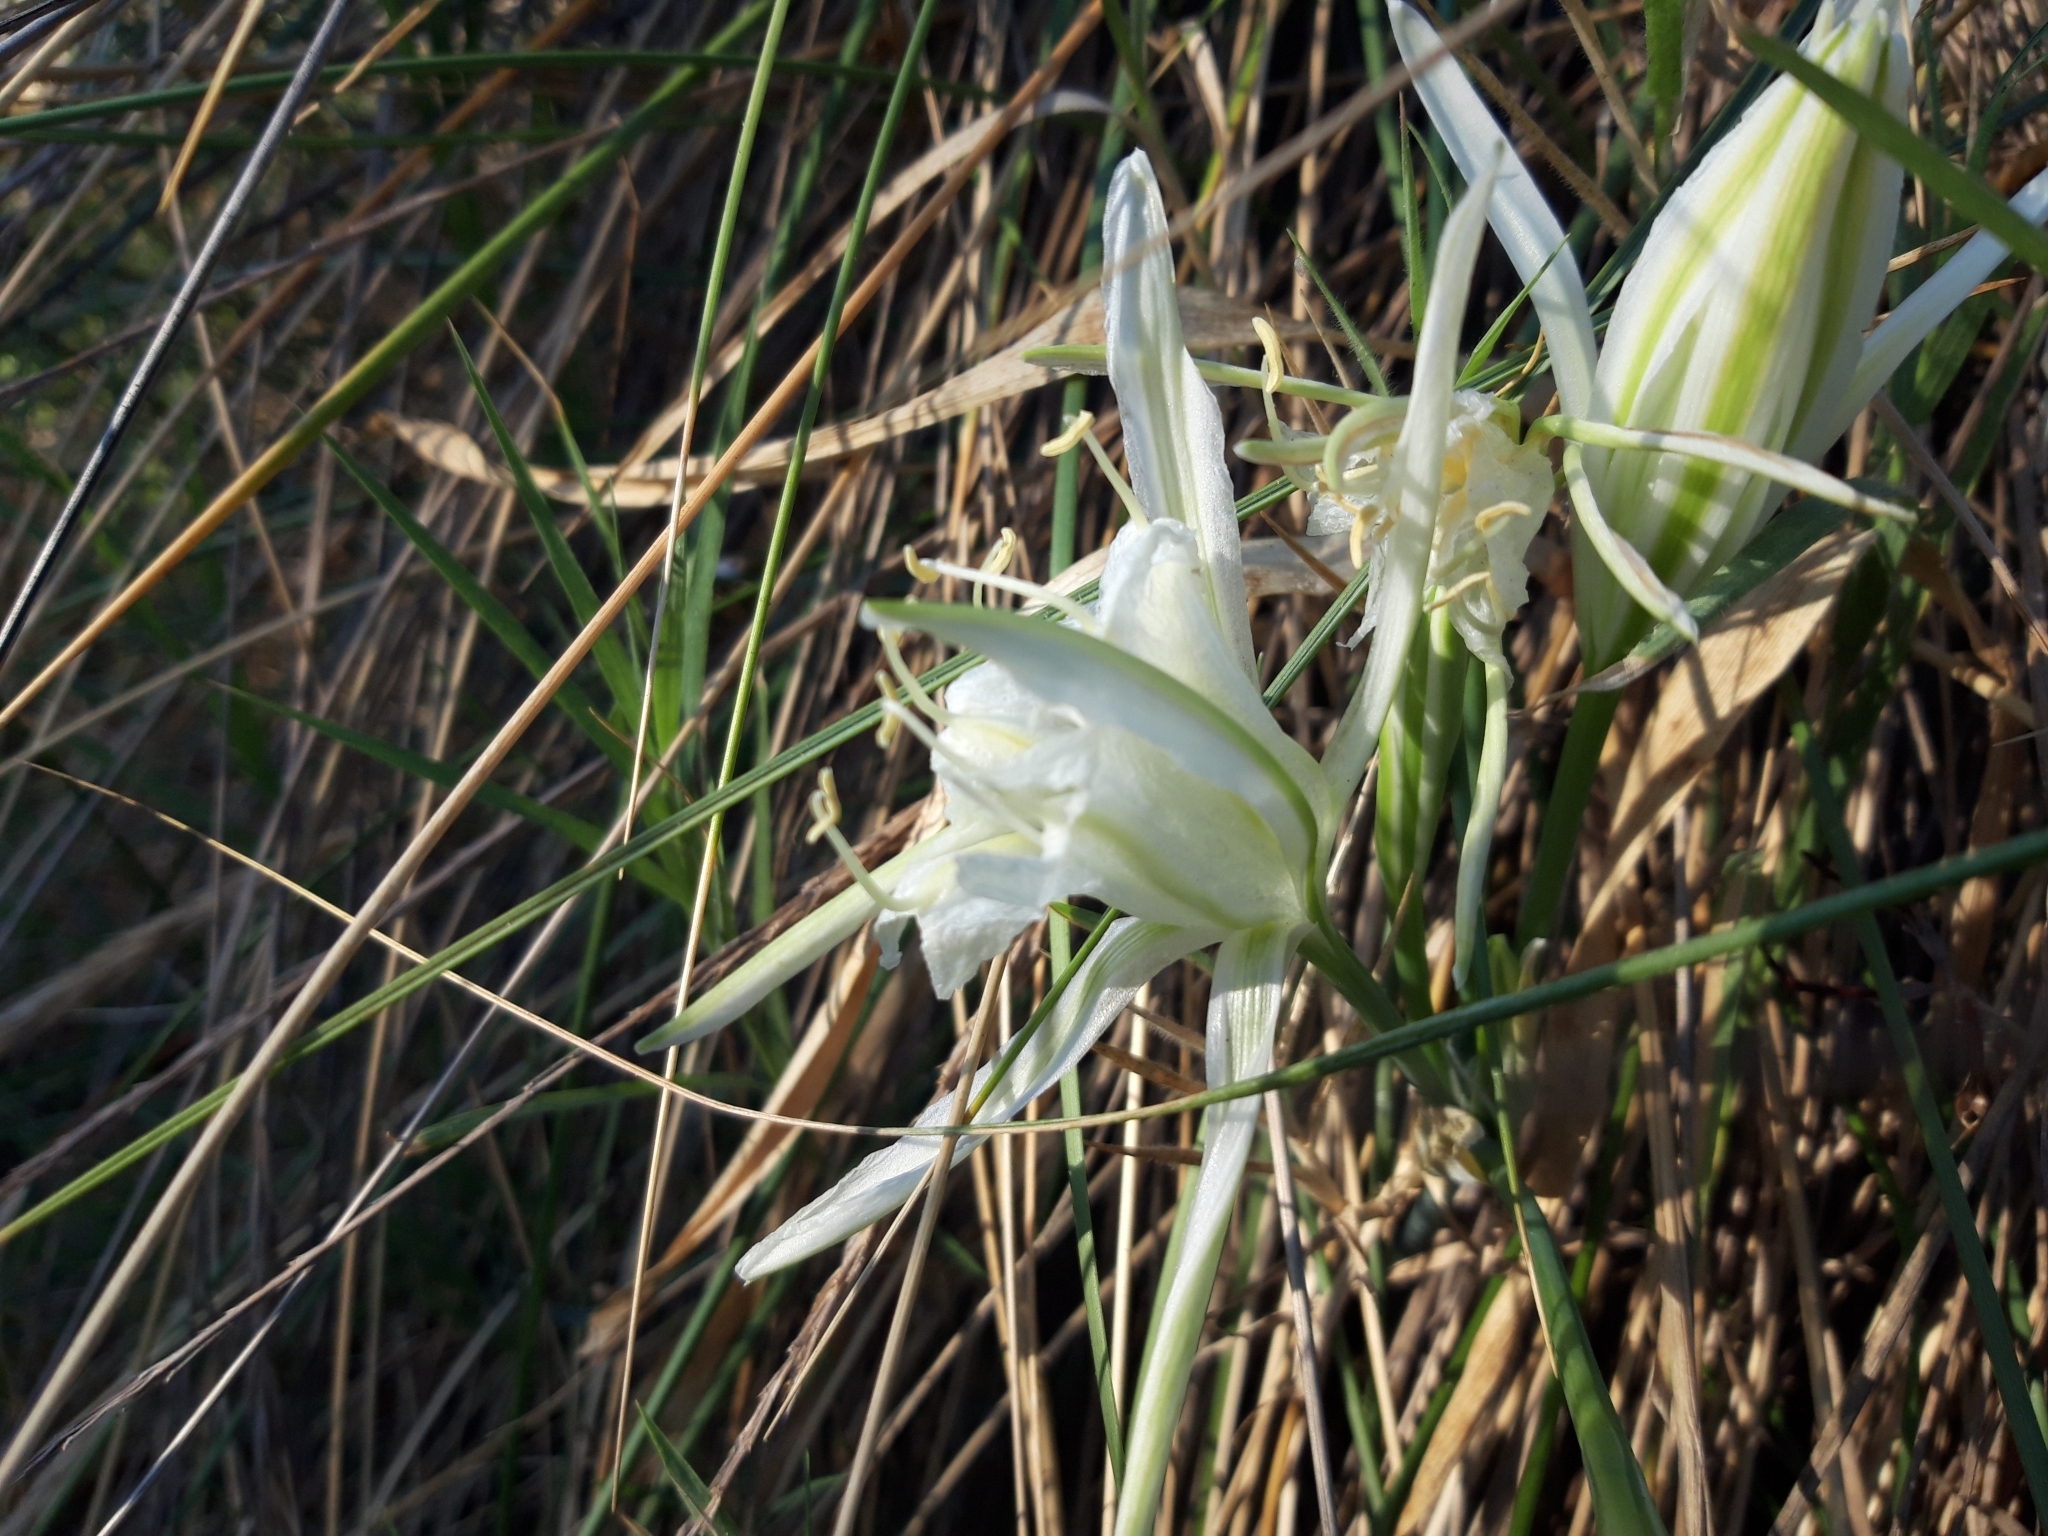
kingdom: Plantae
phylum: Tracheophyta
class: Liliopsida
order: Asparagales
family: Amaryllidaceae
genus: Pancratium
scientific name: Pancratium maritimum
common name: Sea-daffodil
